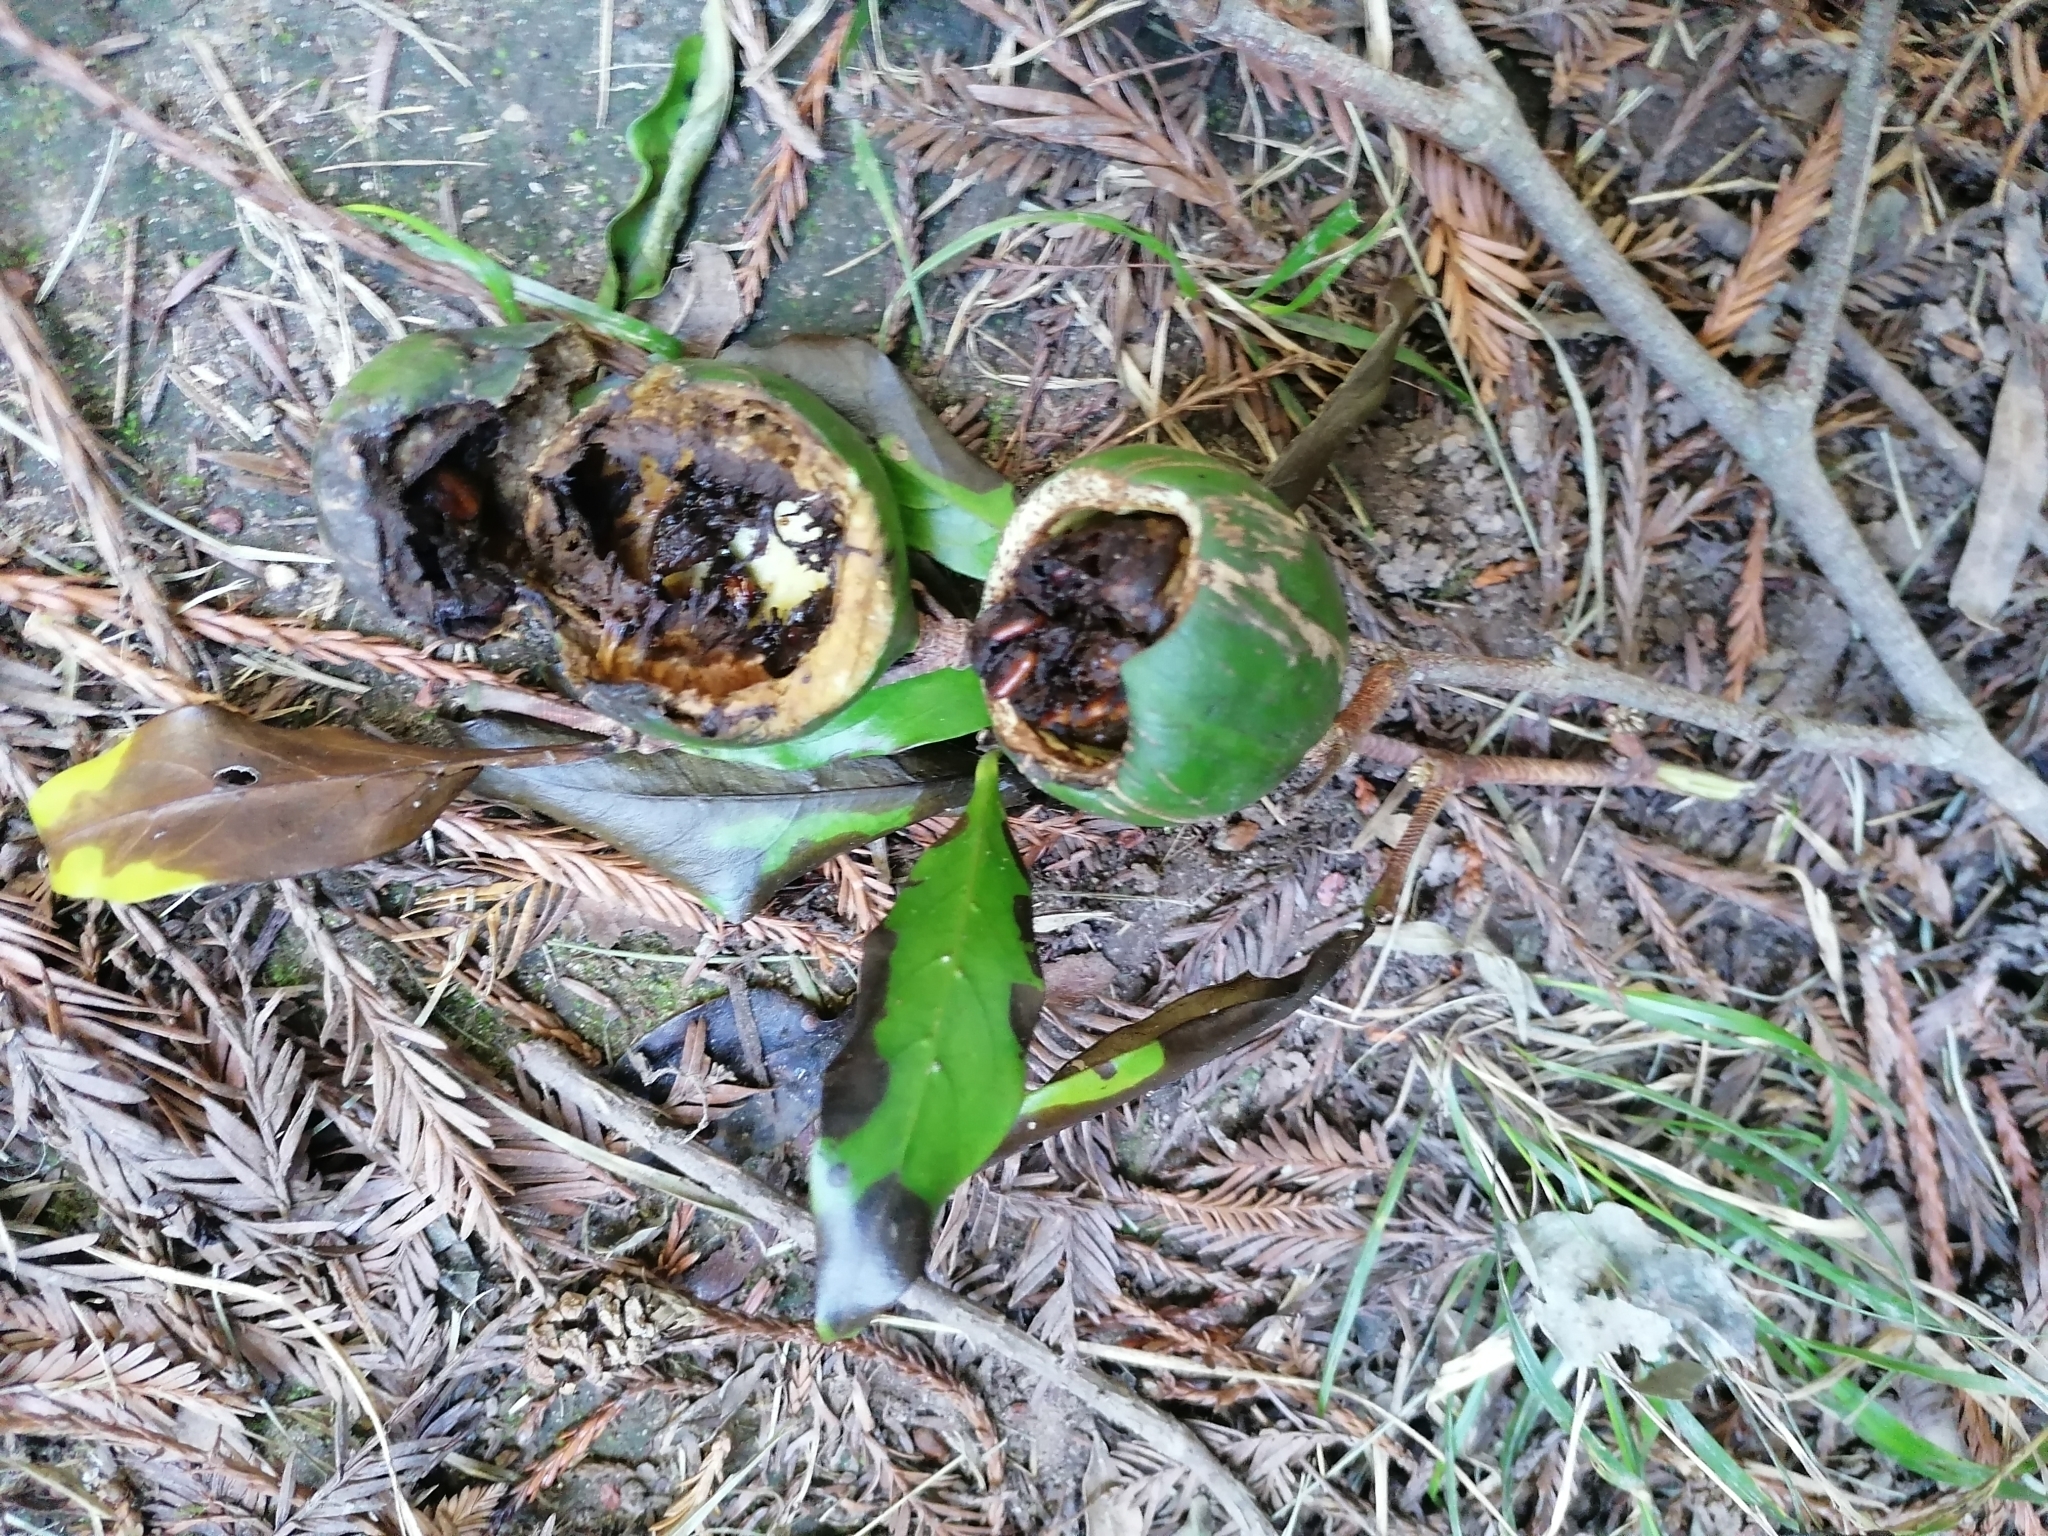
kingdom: Plantae
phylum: Tracheophyta
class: Magnoliopsida
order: Gentianales
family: Rubiaceae
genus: Rothmannia
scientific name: Rothmannia capensis
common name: Cape gardenia
